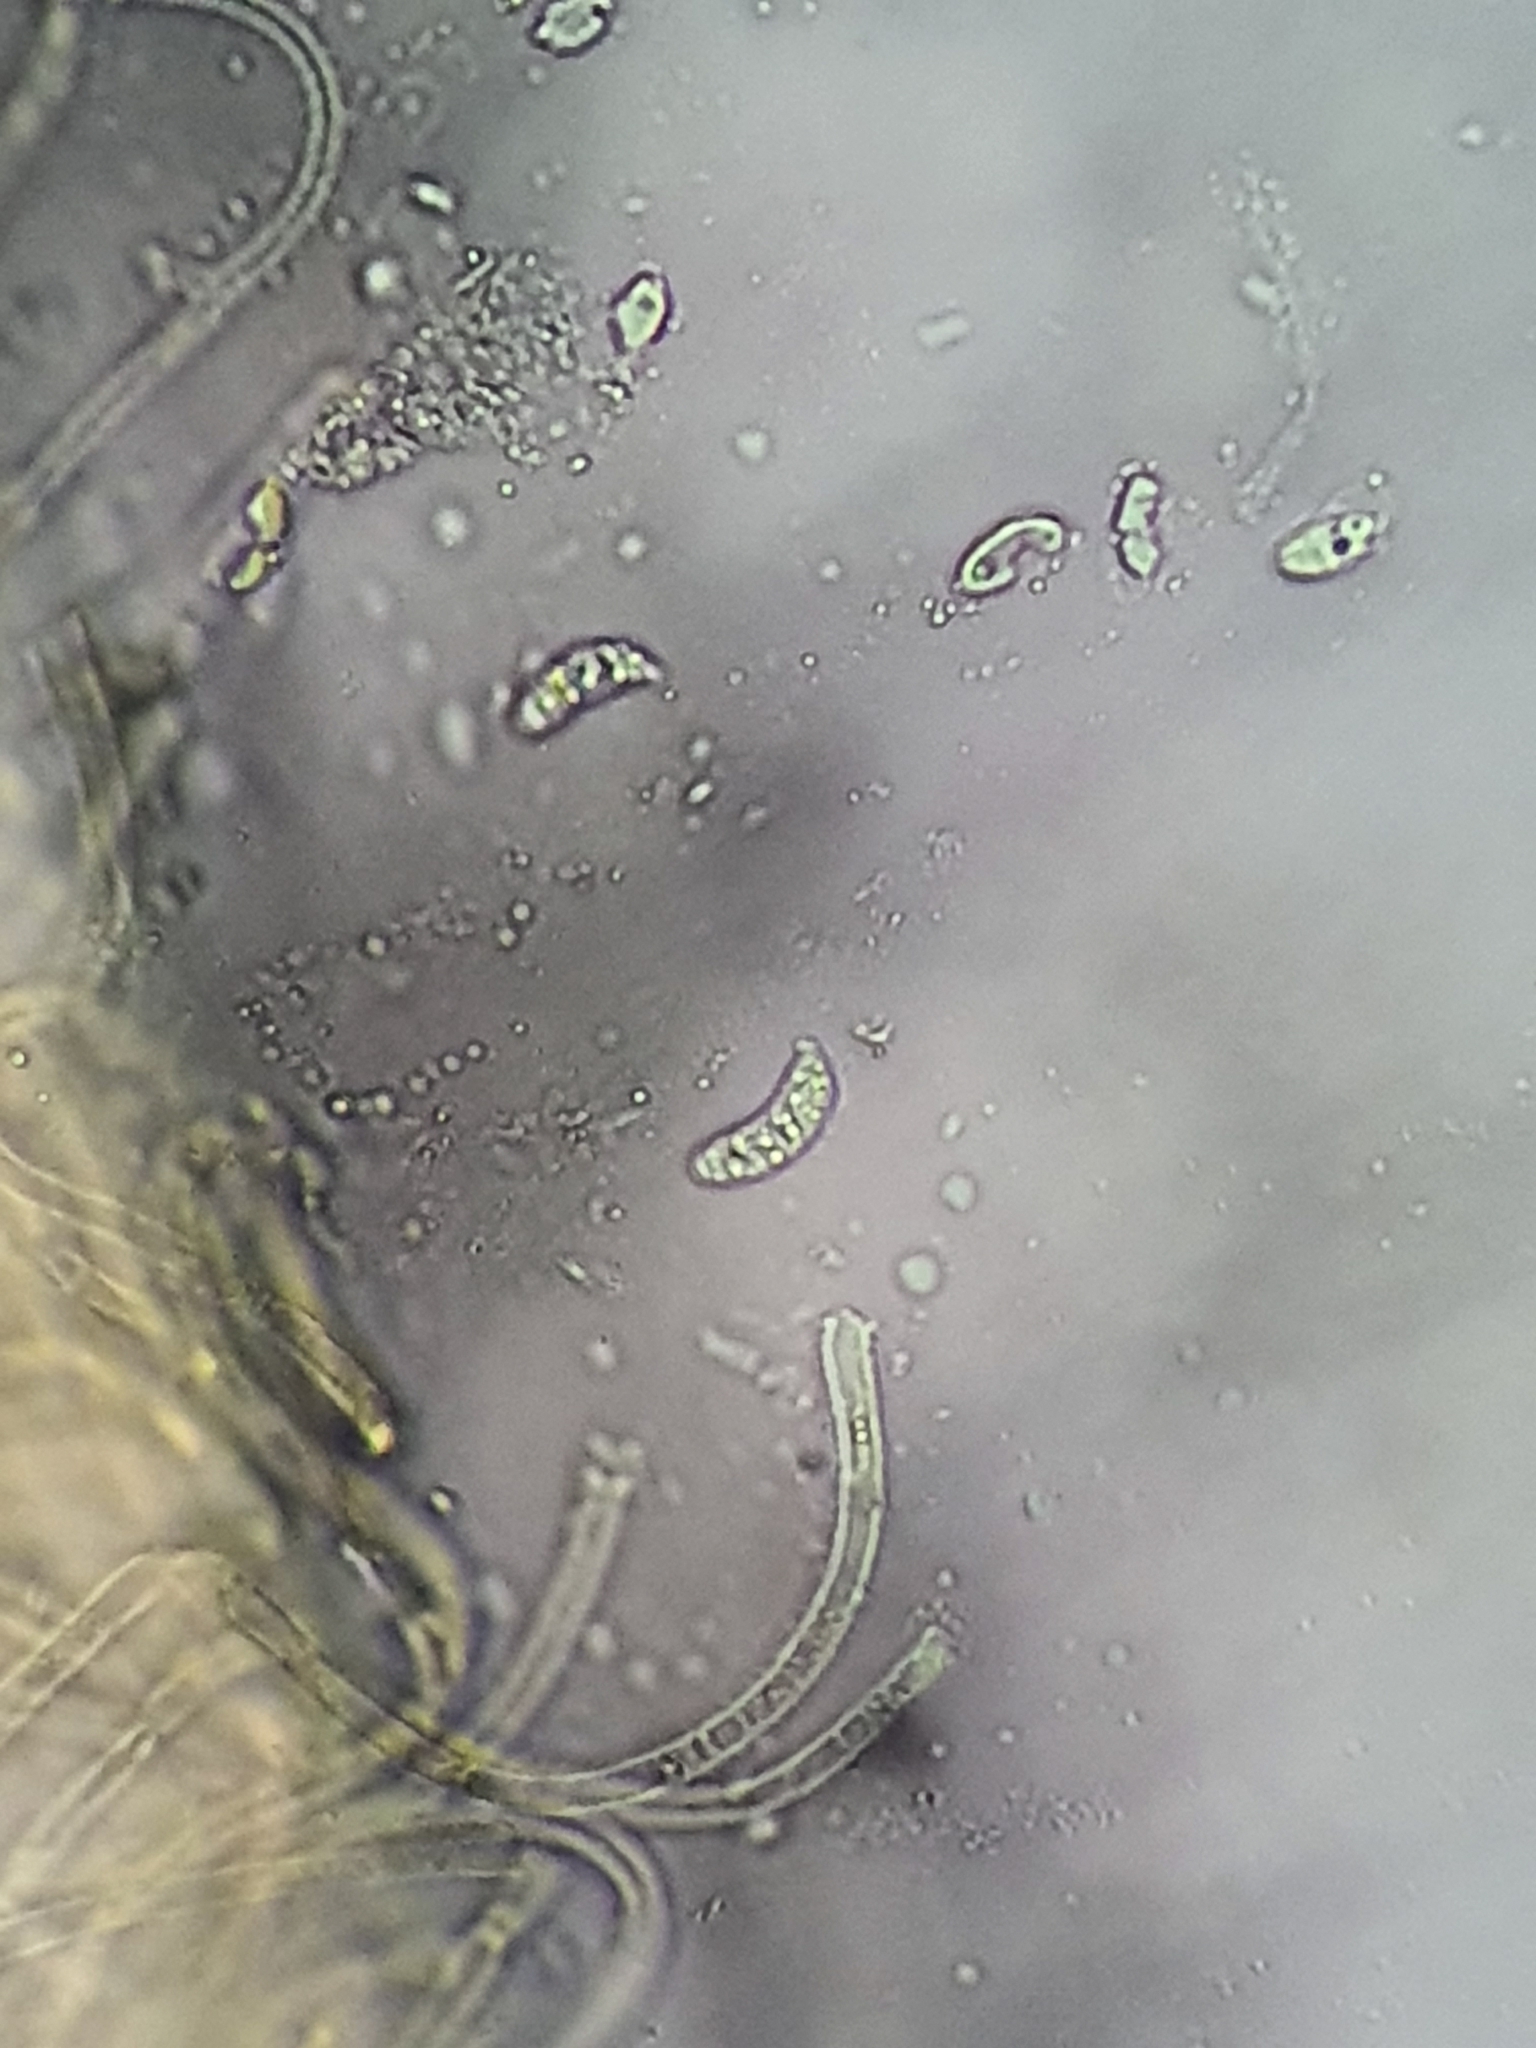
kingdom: Fungi
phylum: Basidiomycota
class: Dacrymycetes
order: Dacrymycetales
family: Dacrymycetaceae
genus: Heterotextus
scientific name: Heterotextus miltinus
